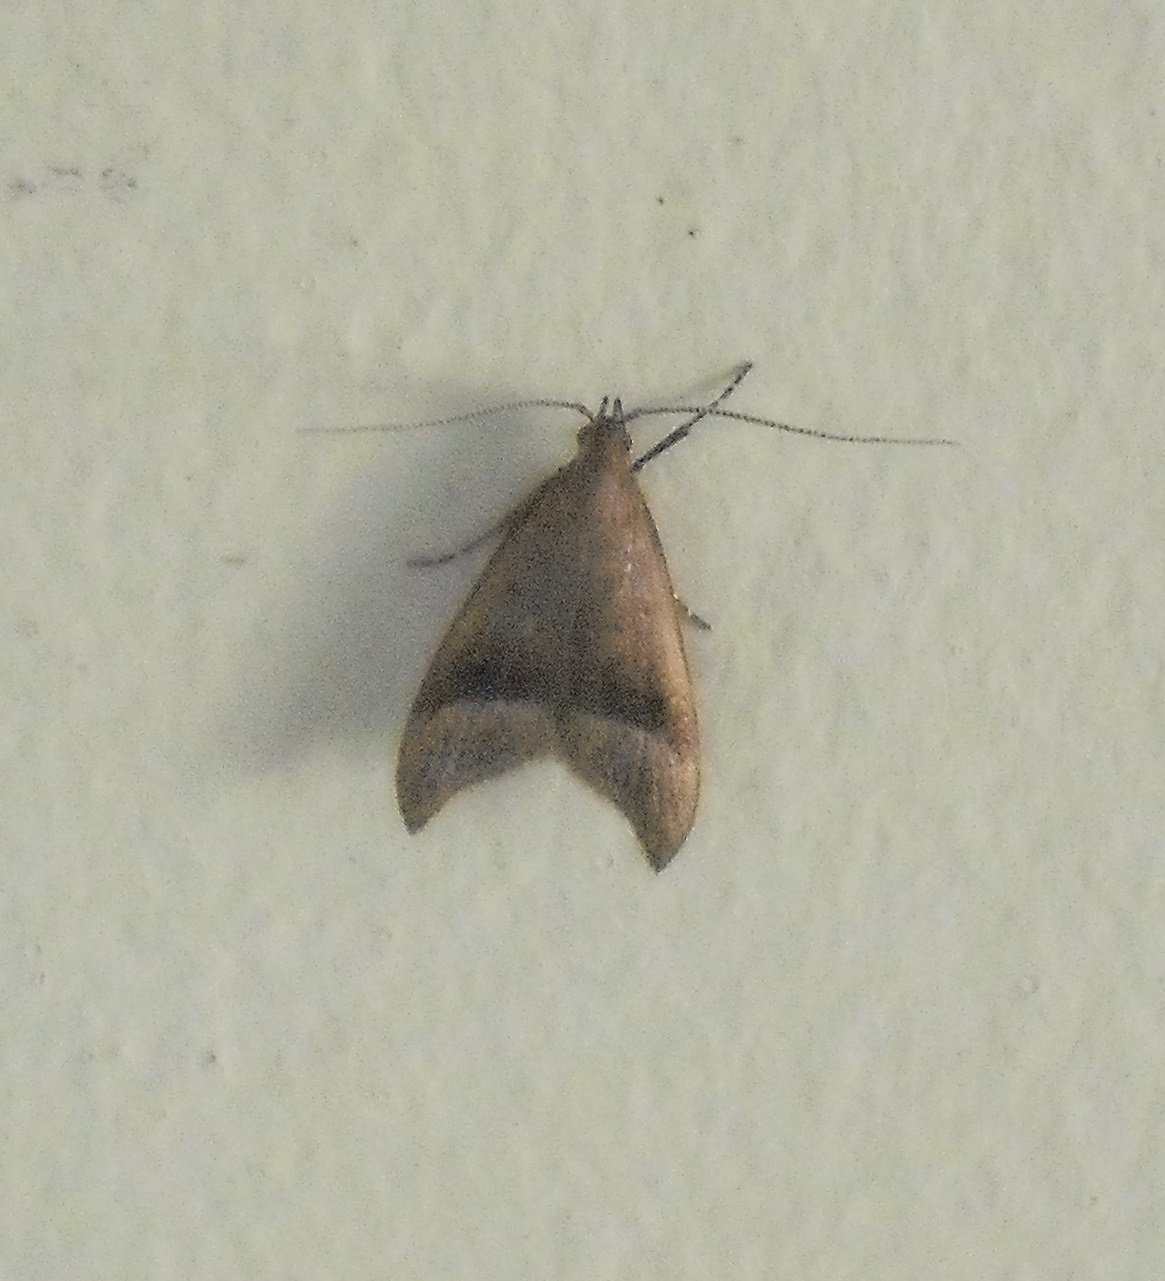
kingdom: Animalia
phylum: Arthropoda
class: Insecta
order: Lepidoptera
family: Oecophoridae
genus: Gymnobathra
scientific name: Gymnobathra hyetodes
